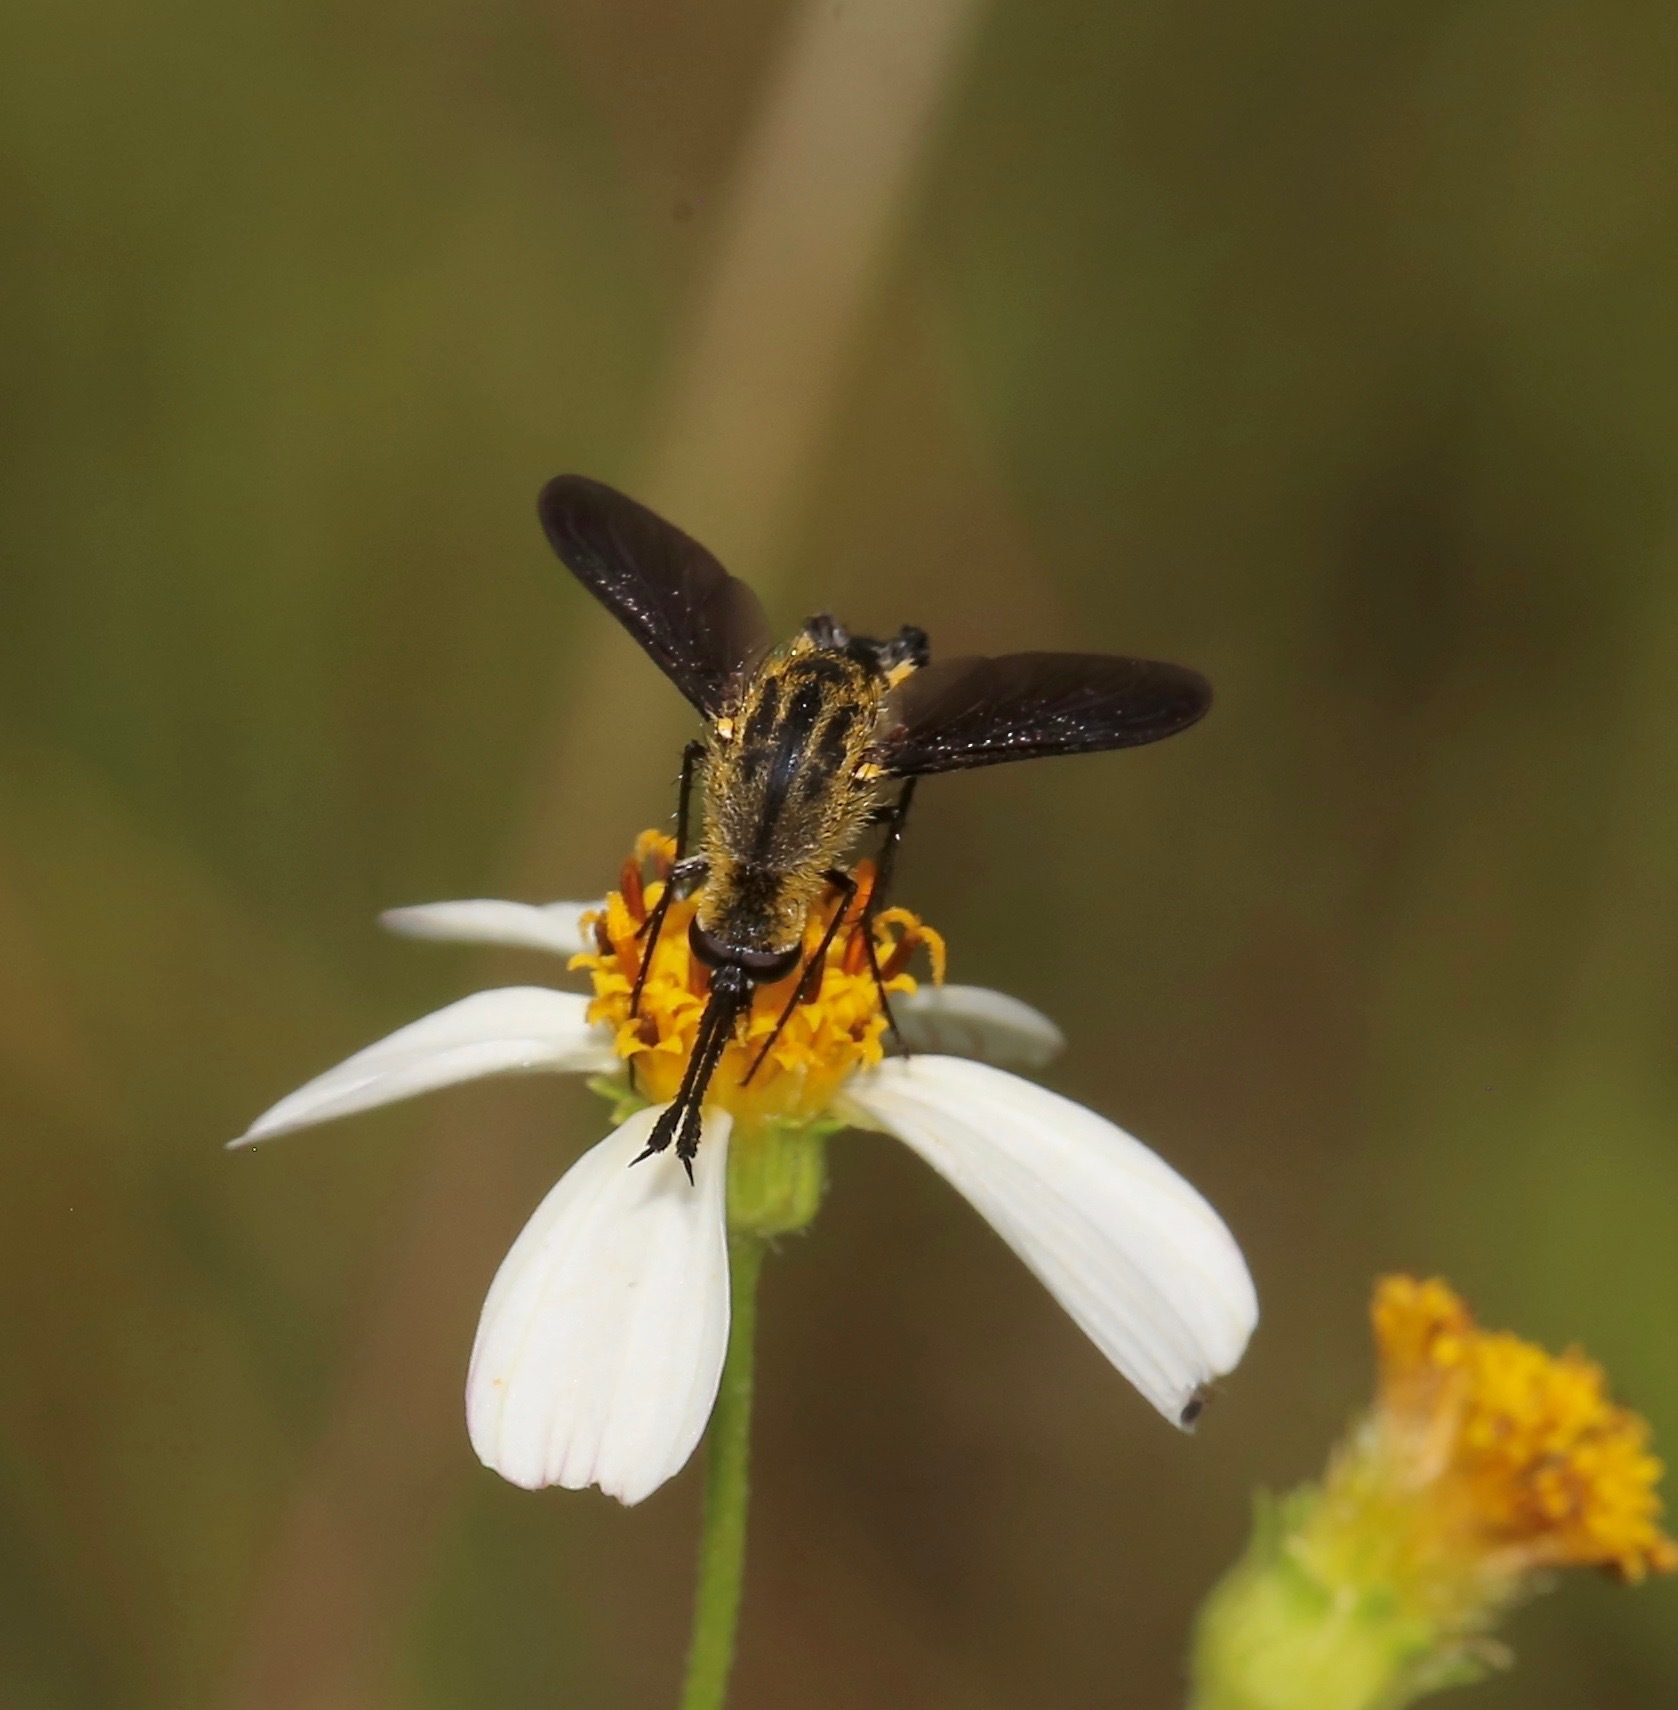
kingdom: Animalia
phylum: Arthropoda
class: Insecta
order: Diptera
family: Bombyliidae
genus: Lepidophora
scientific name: Lepidophora lepidocera
